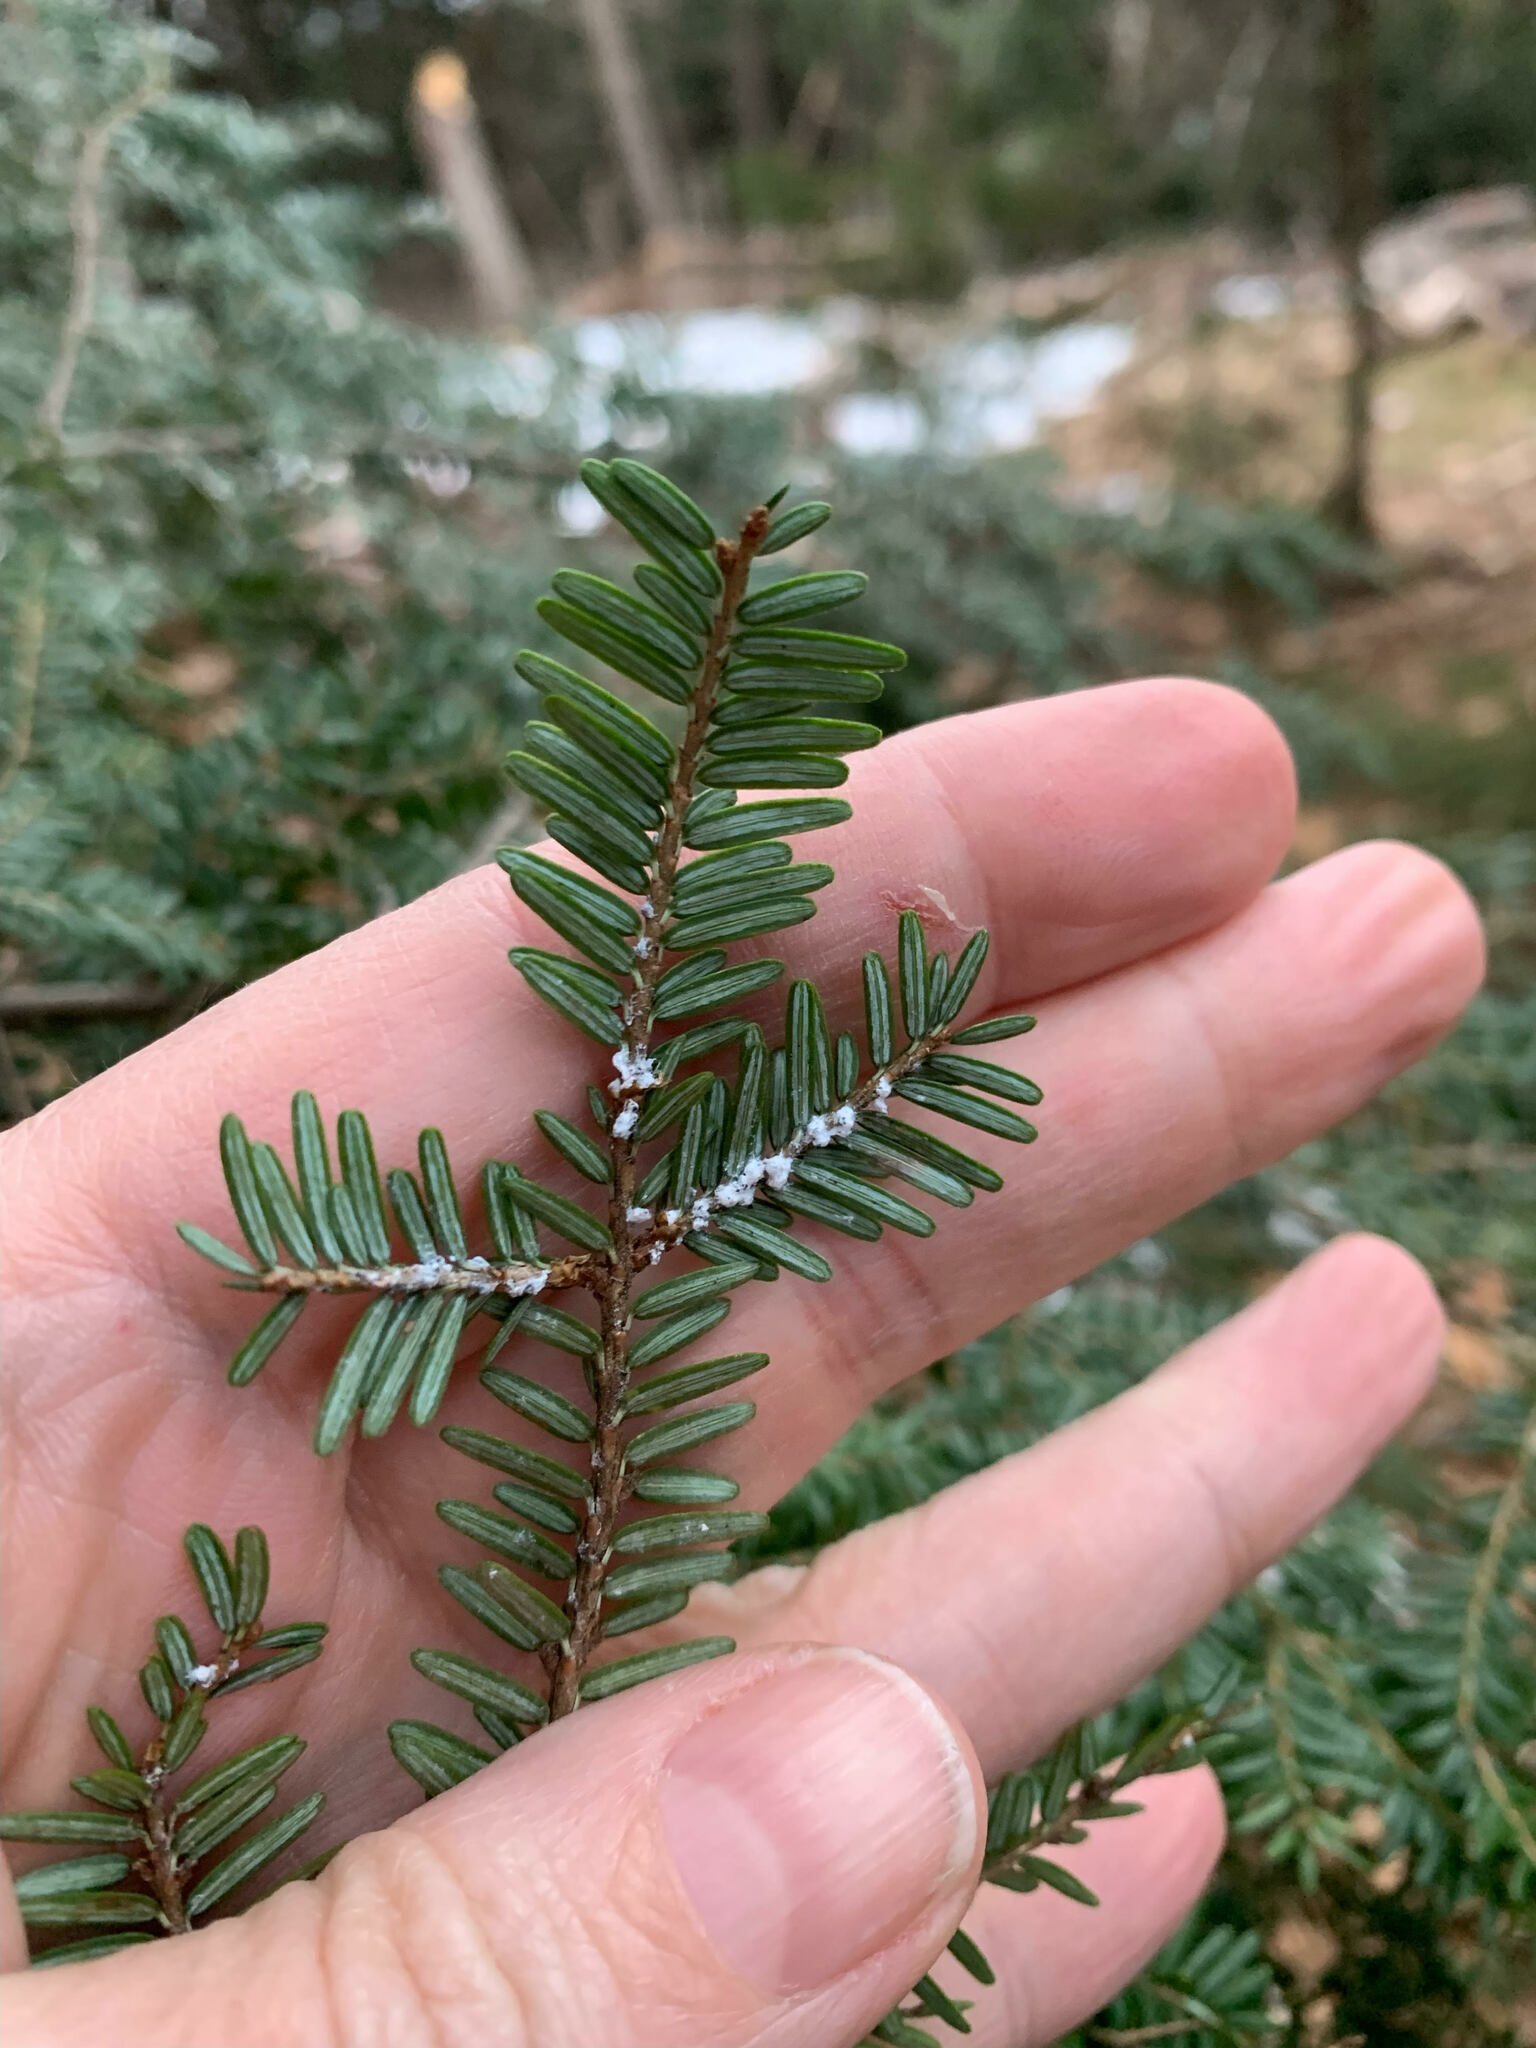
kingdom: Animalia
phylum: Arthropoda
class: Insecta
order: Hemiptera
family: Adelgidae
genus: Adelges
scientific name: Adelges tsugae
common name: Hemlock woolly adelgid
